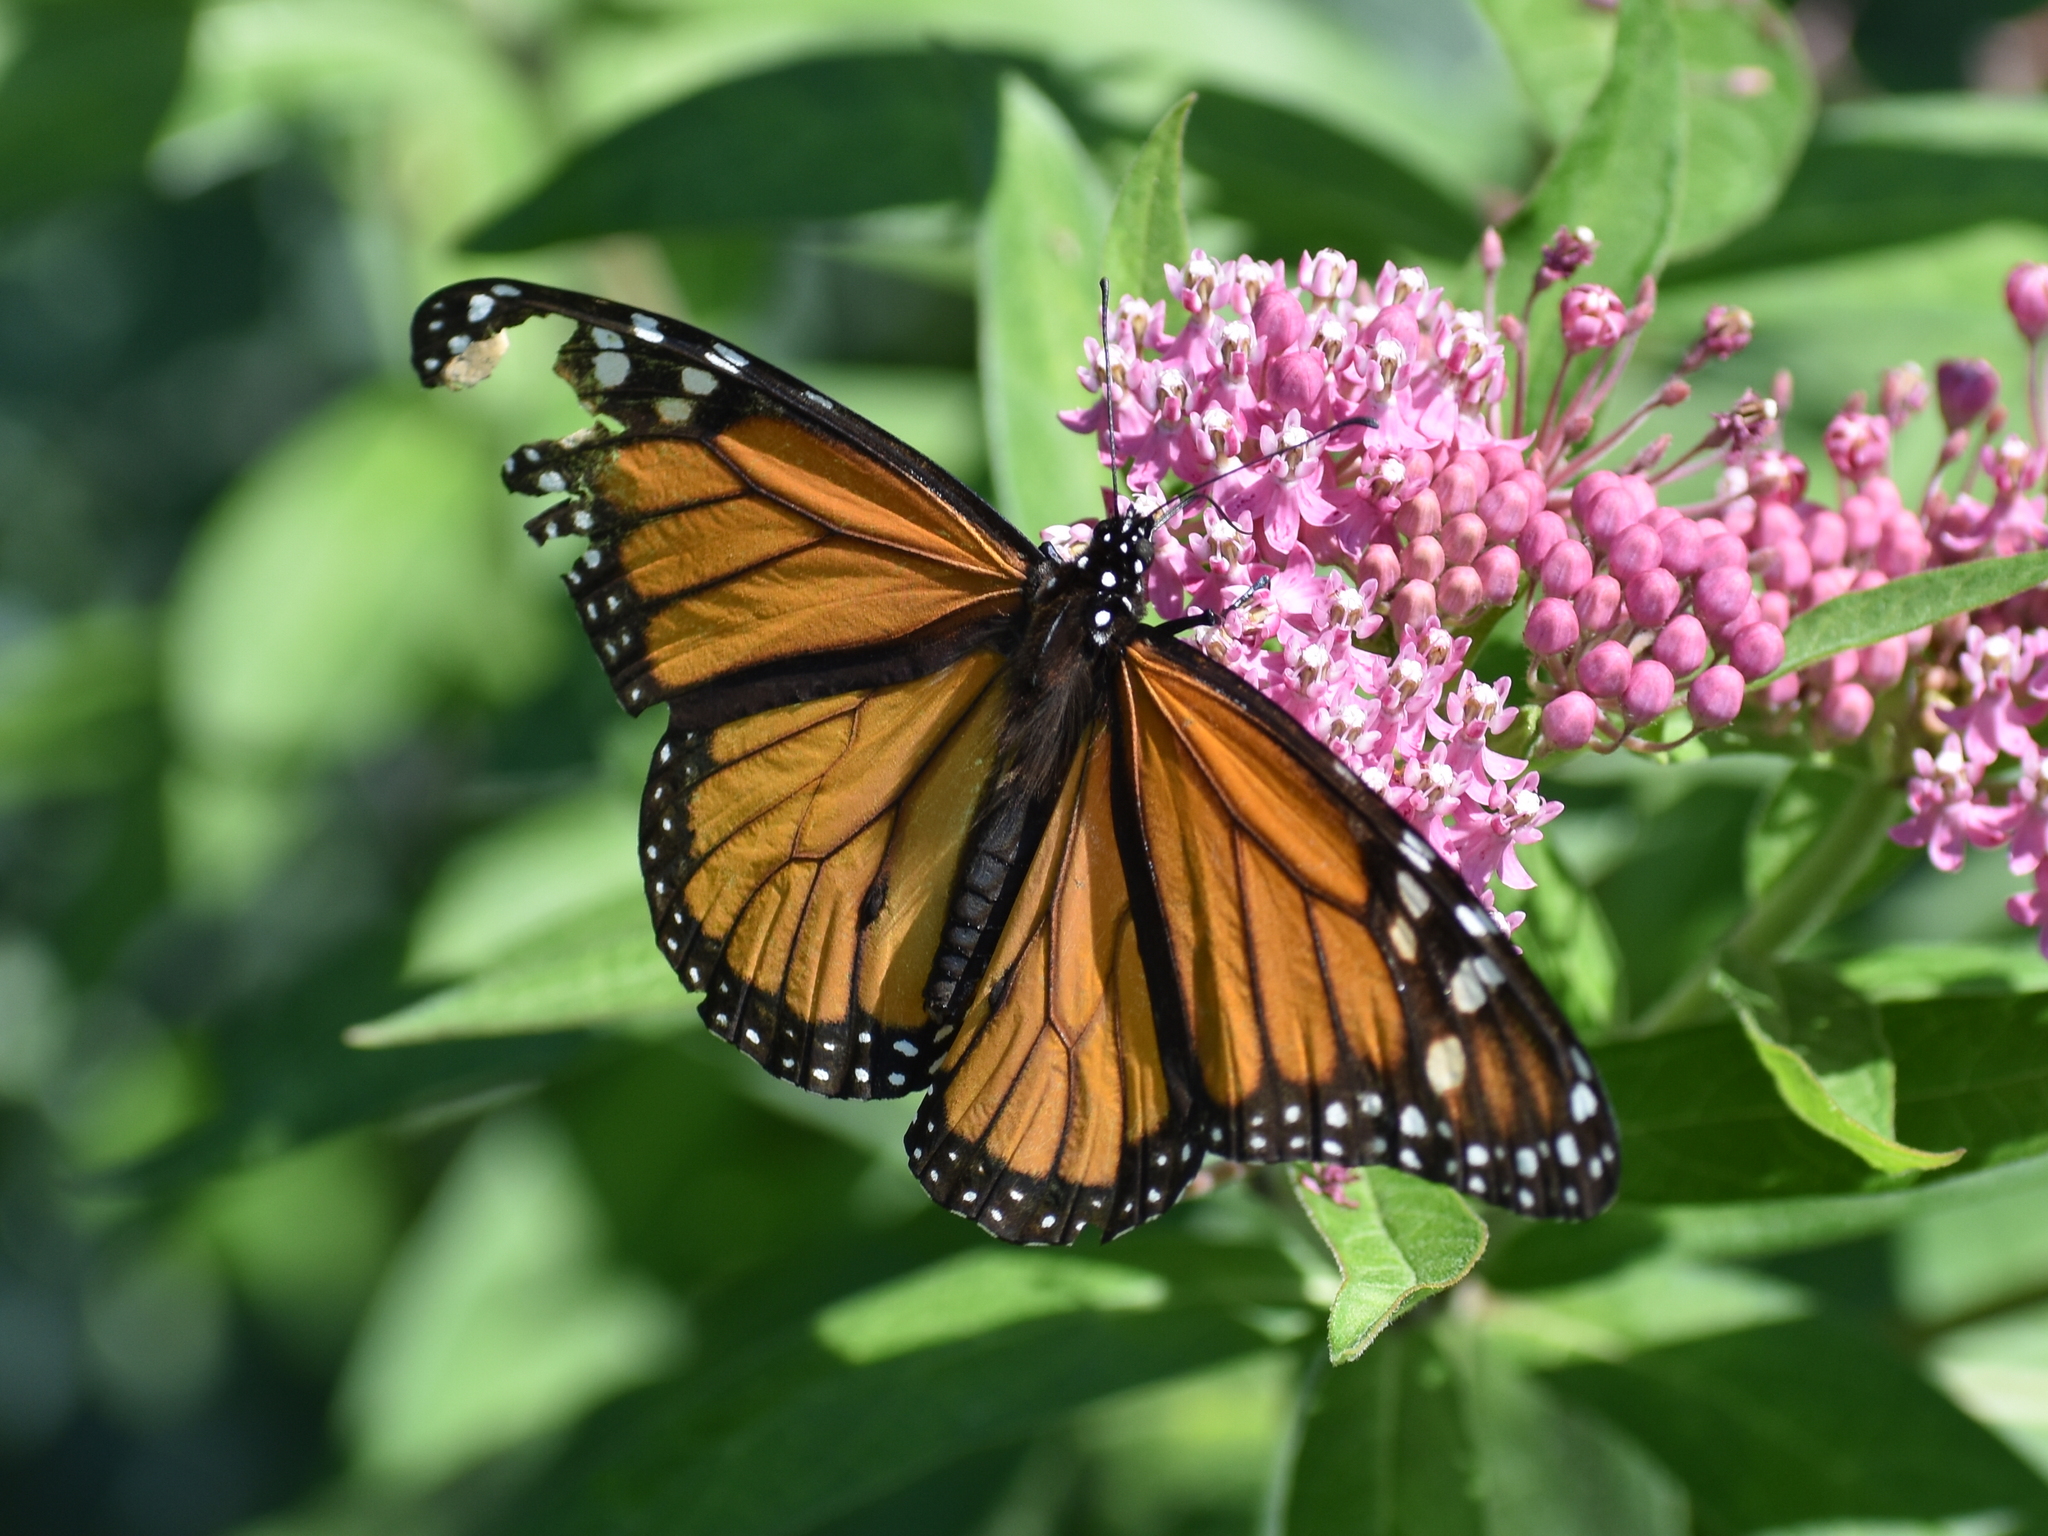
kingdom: Animalia
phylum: Arthropoda
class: Insecta
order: Lepidoptera
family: Nymphalidae
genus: Danaus
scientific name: Danaus plexippus
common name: Monarch
